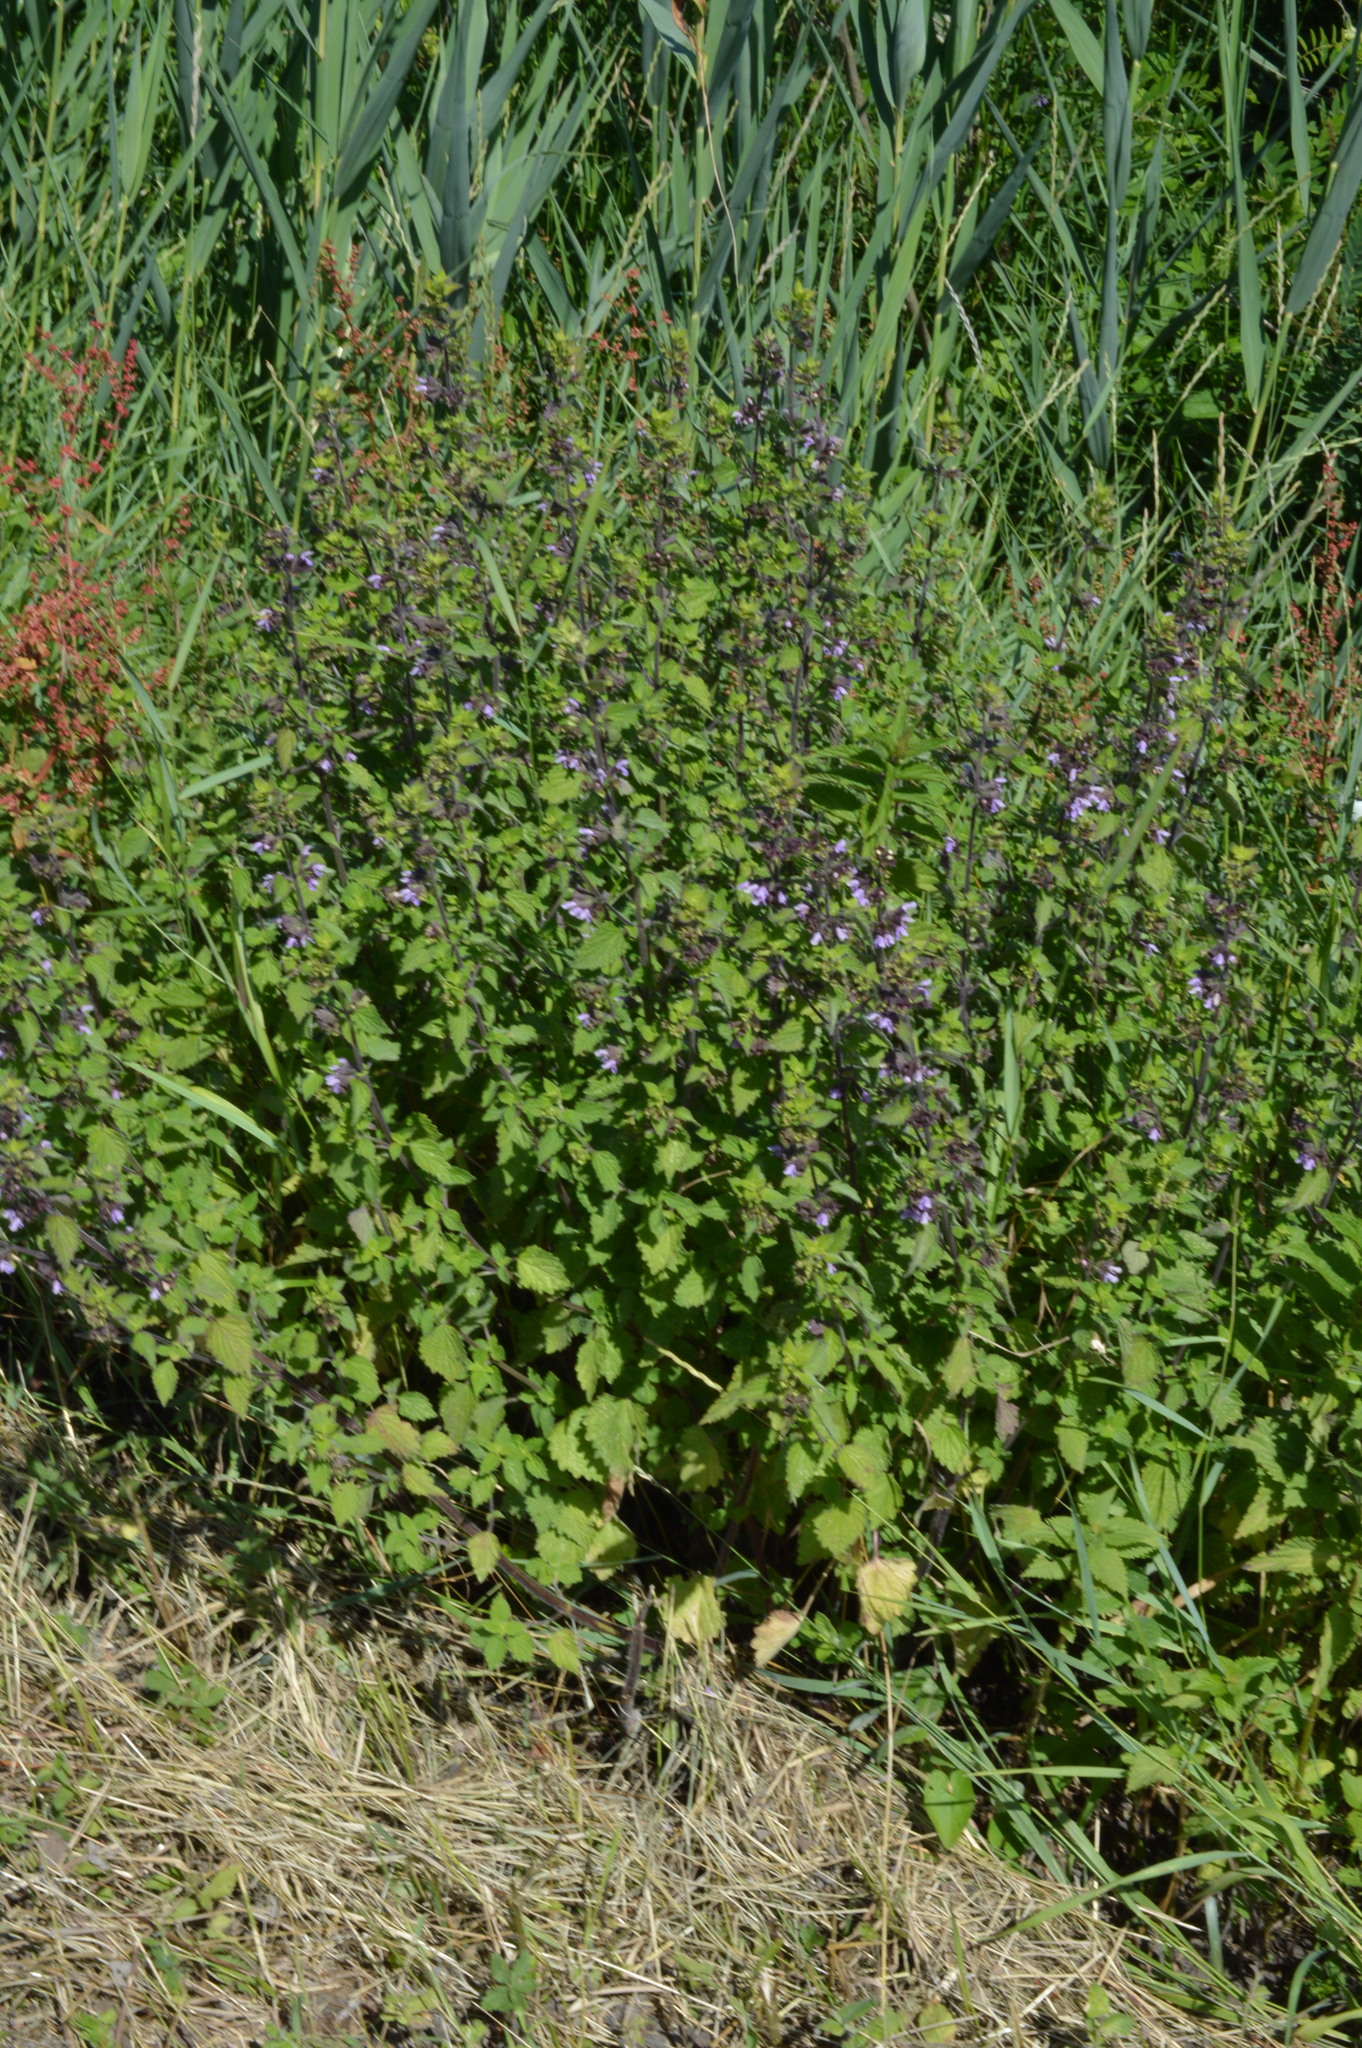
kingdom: Plantae
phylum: Tracheophyta
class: Magnoliopsida
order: Lamiales
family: Lamiaceae
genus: Ballota
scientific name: Ballota nigra
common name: Black horehound
